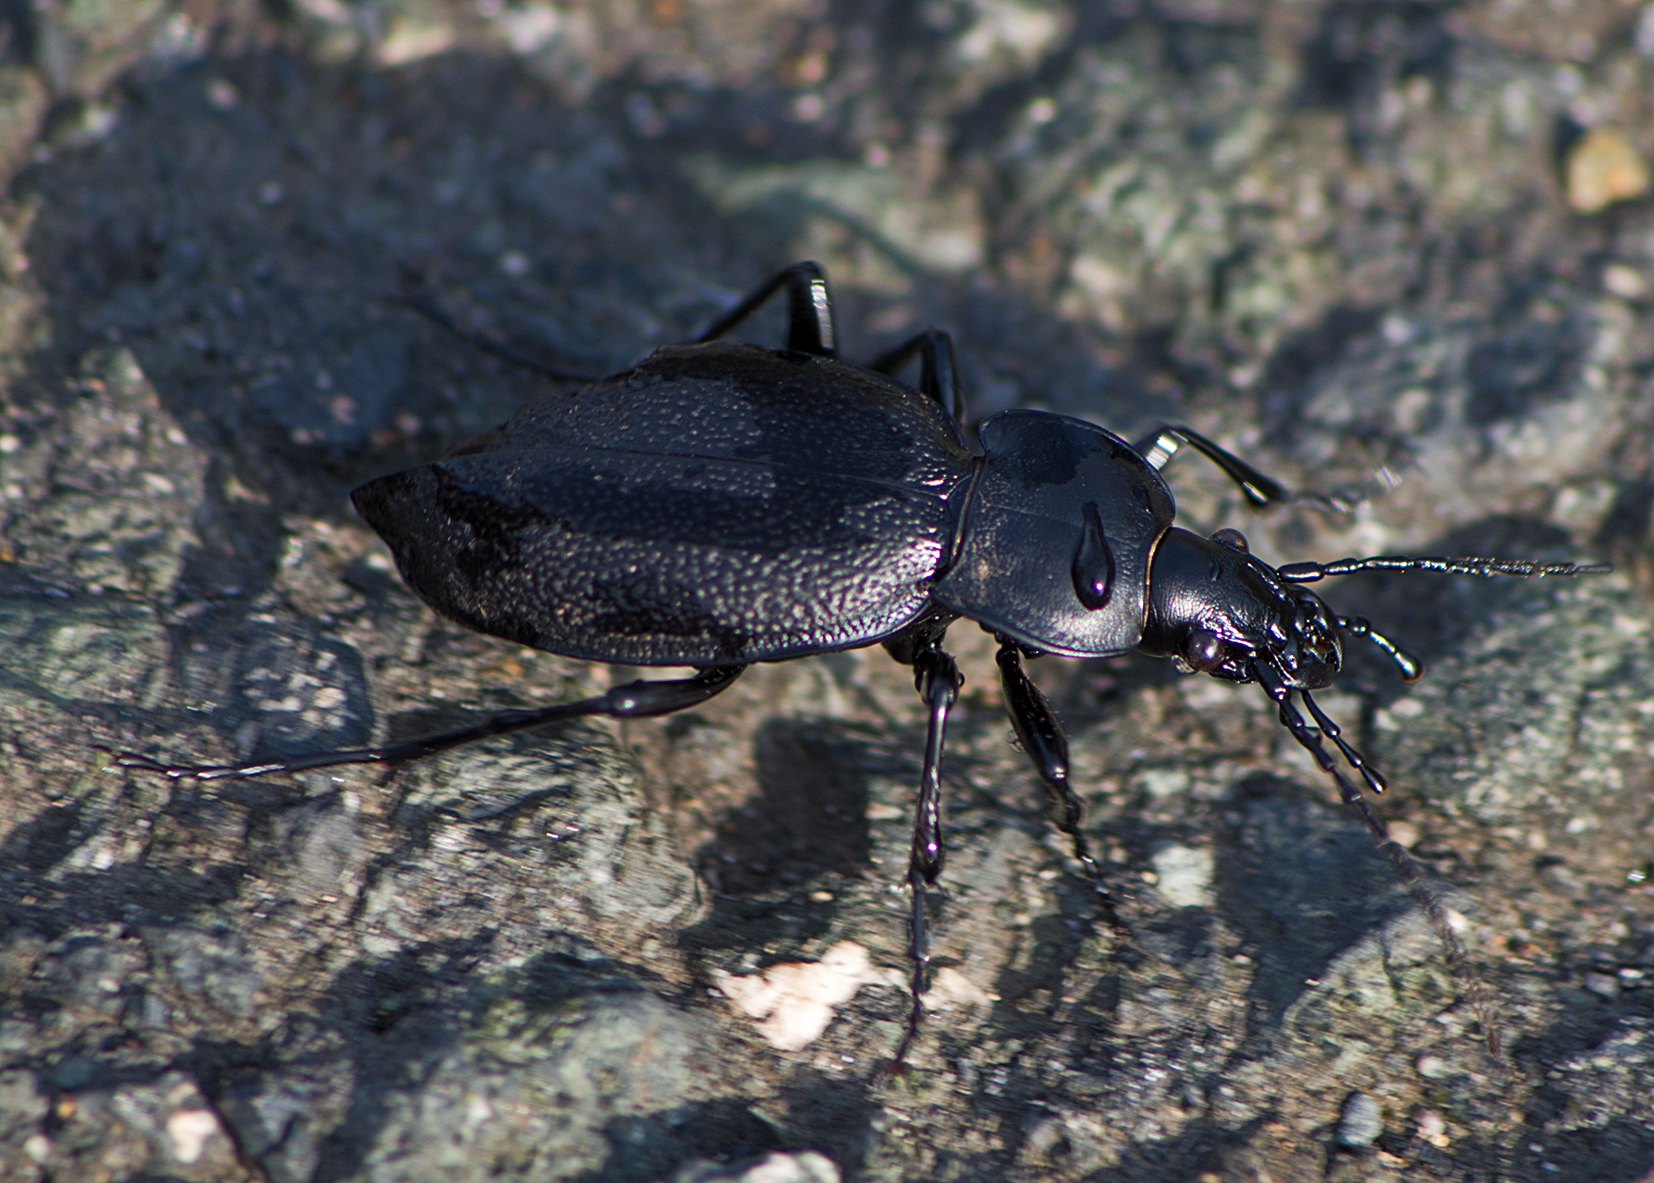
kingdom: Animalia
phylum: Arthropoda
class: Insecta
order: Coleoptera
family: Carabidae
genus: Carabus
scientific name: Carabus coriaceus
